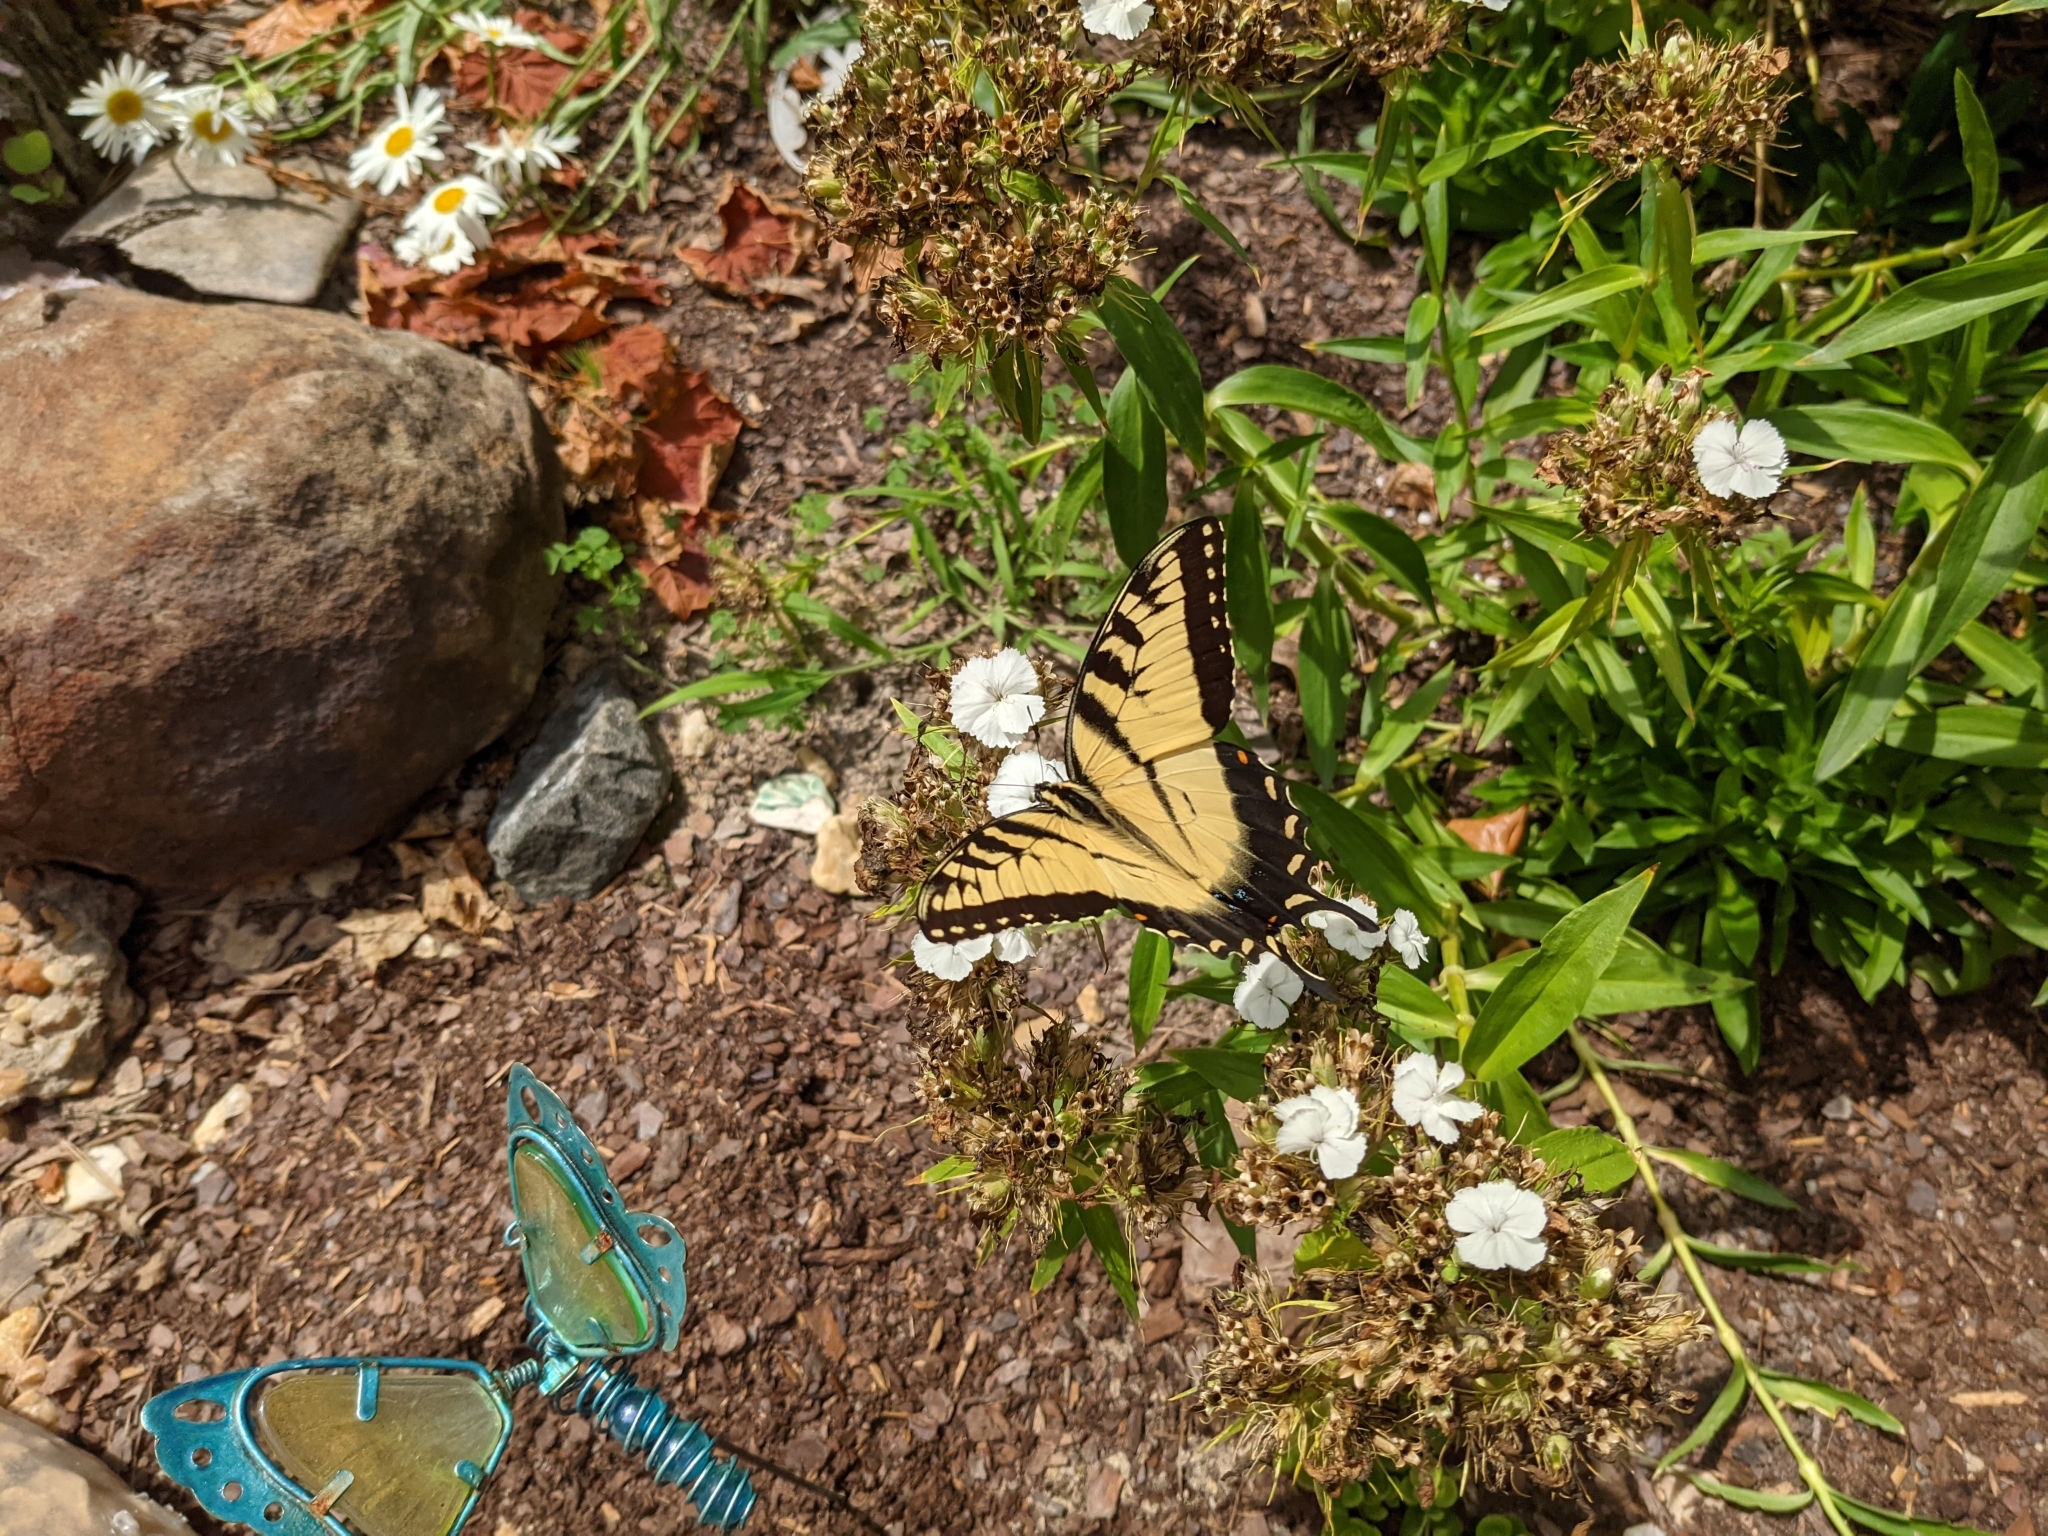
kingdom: Animalia
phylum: Arthropoda
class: Insecta
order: Lepidoptera
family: Papilionidae
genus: Papilio
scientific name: Papilio glaucus
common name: Tiger swallowtail
